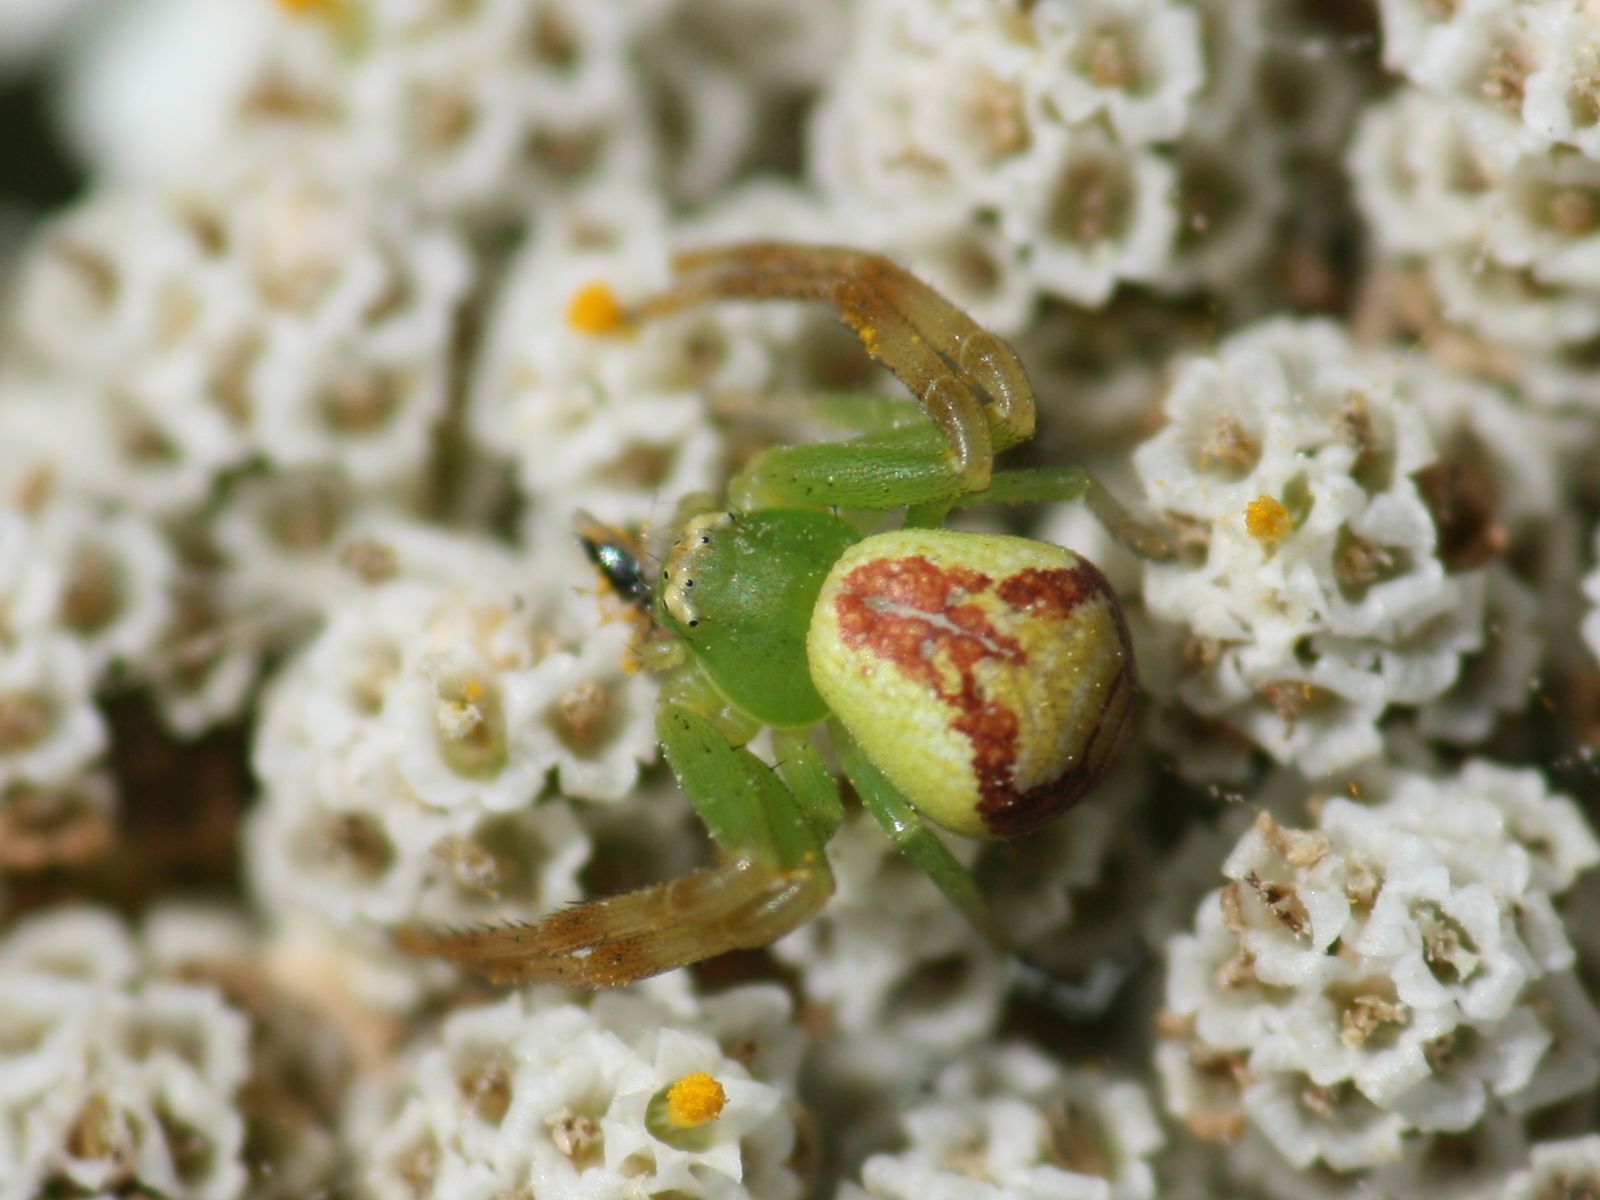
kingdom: Animalia
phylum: Arthropoda
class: Arachnida
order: Araneae
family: Thomisidae
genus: Ebrechtella
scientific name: Ebrechtella tricuspidata
